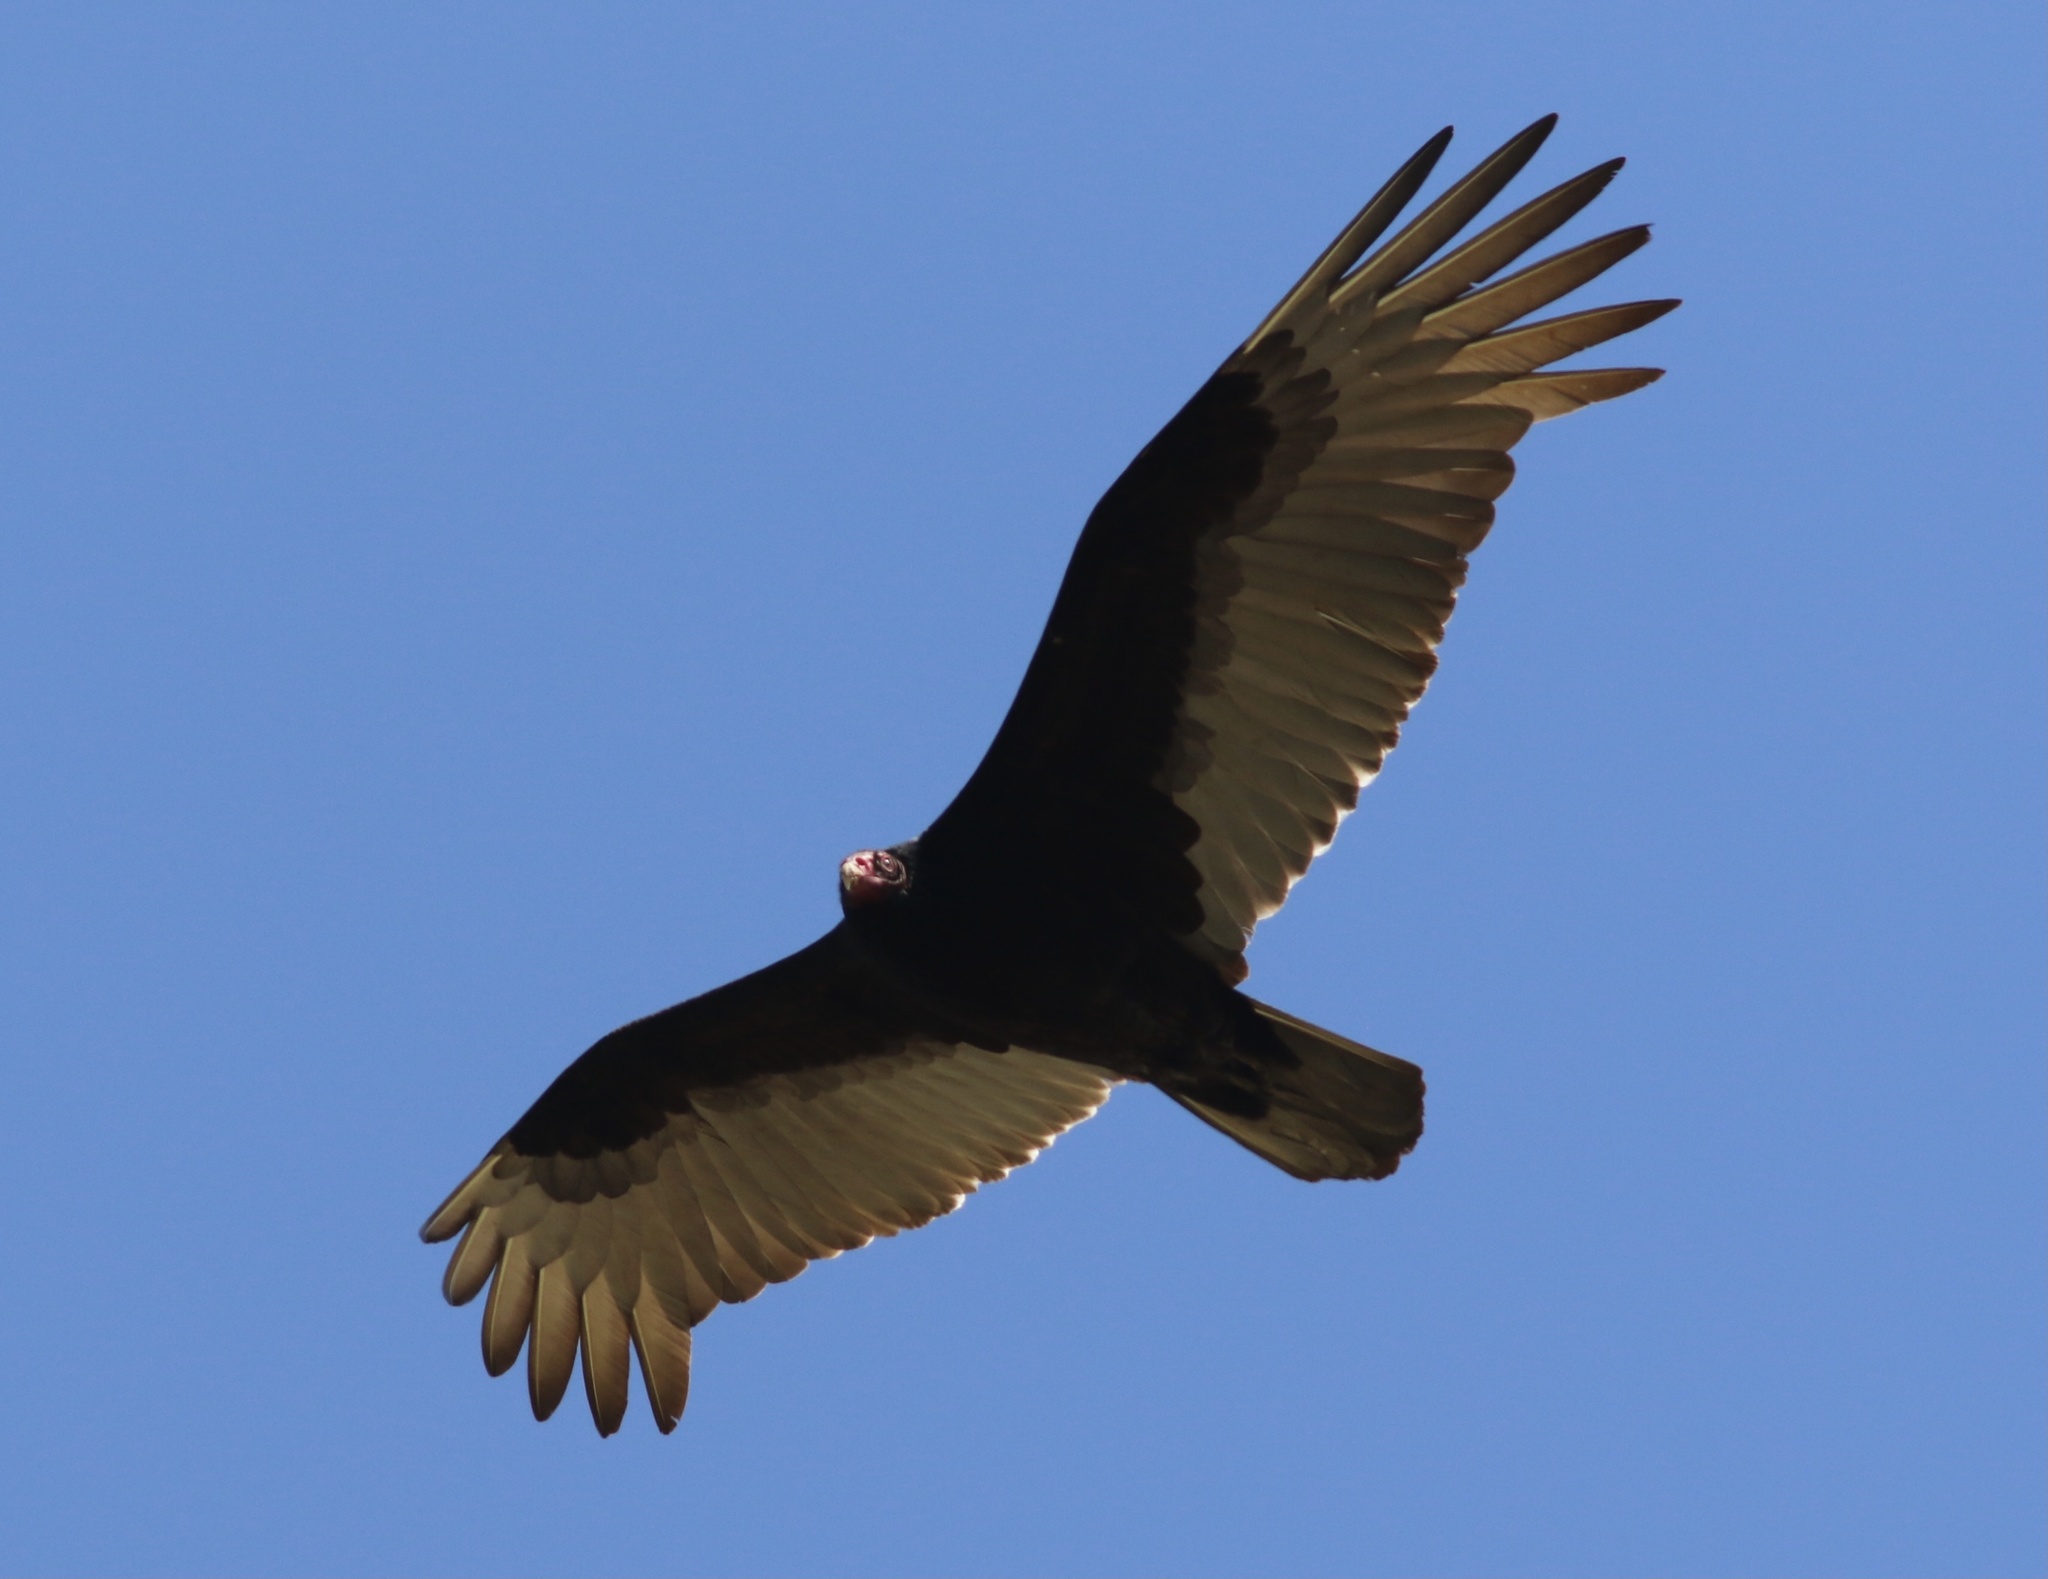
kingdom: Animalia
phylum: Chordata
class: Aves
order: Accipitriformes
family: Cathartidae
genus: Cathartes
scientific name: Cathartes aura
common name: Turkey vulture
